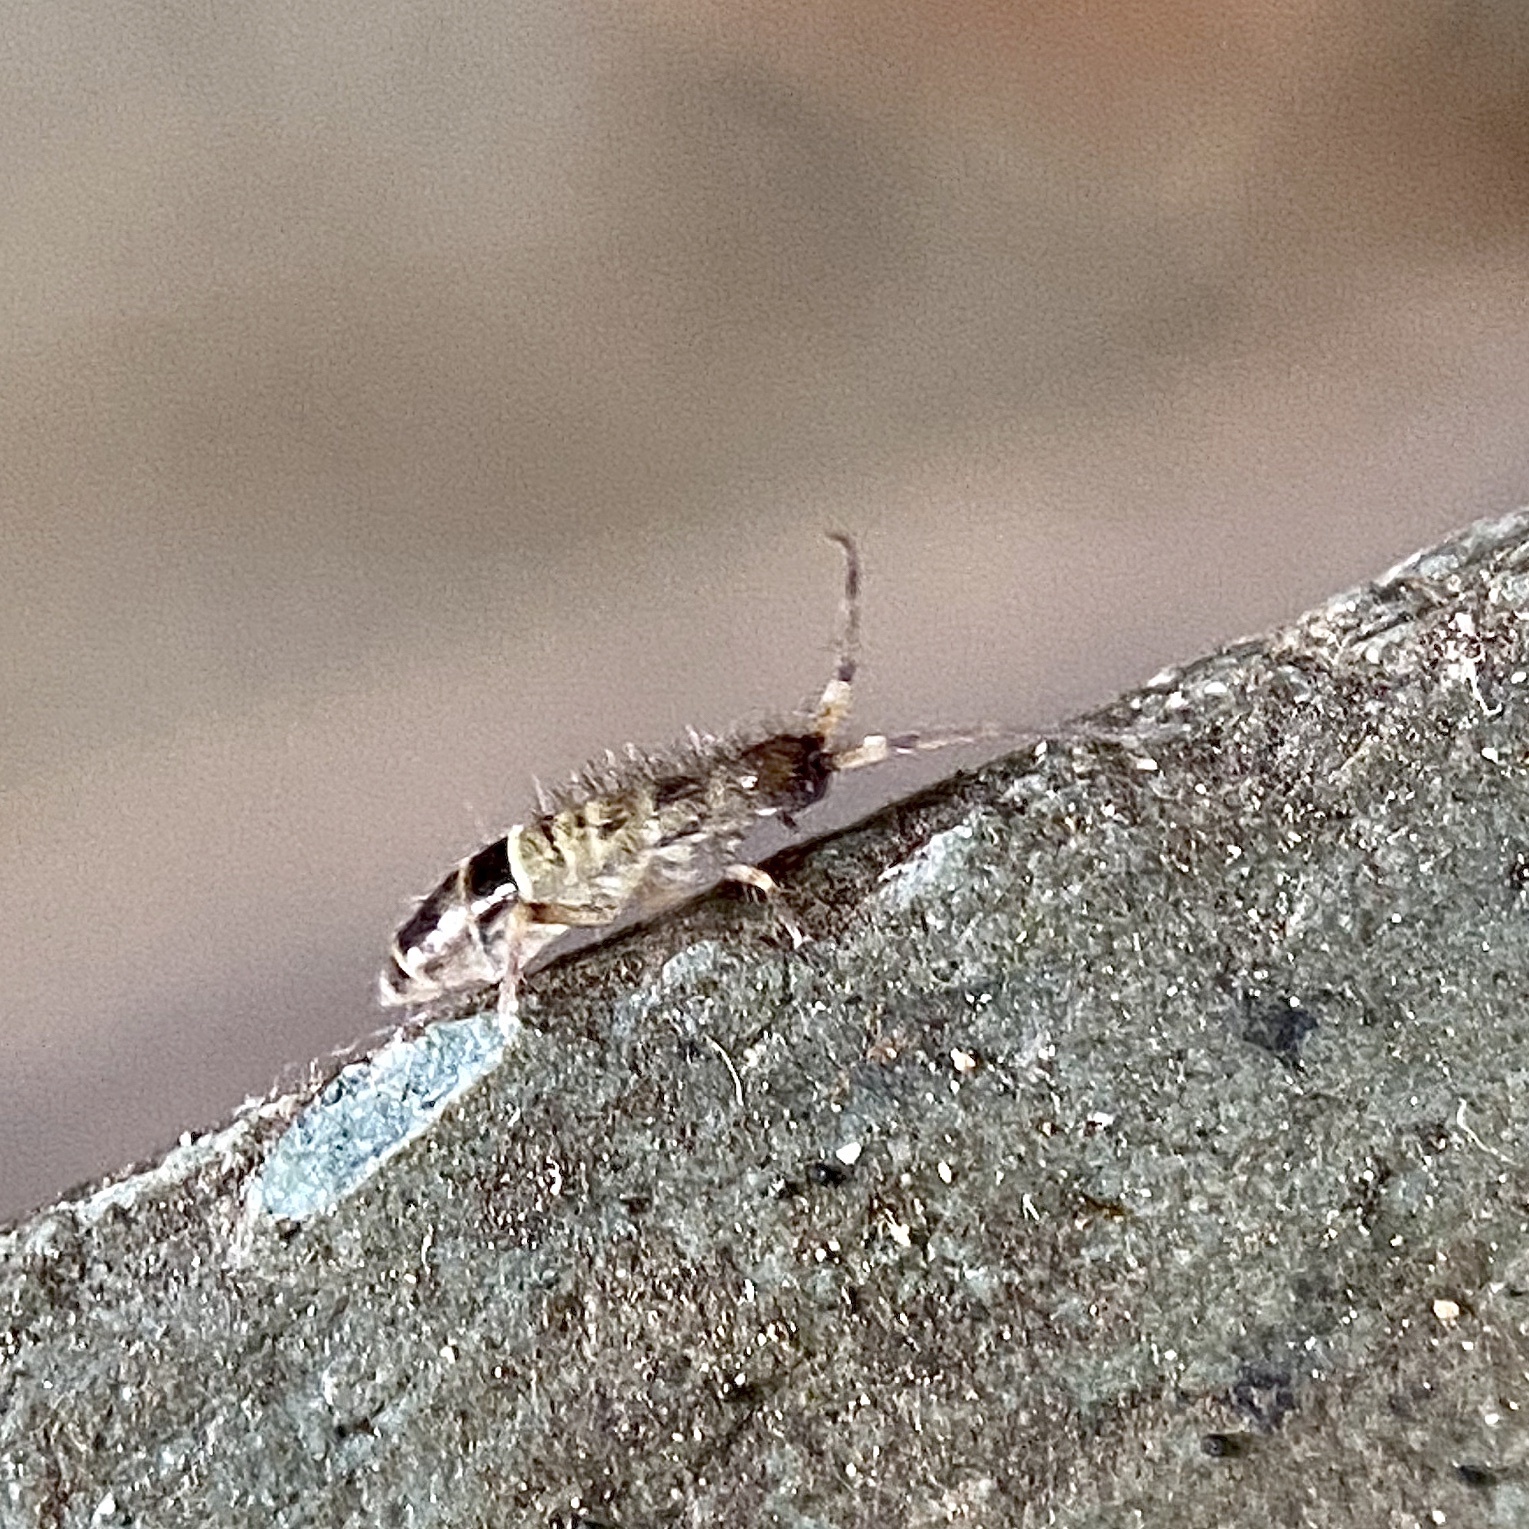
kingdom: Animalia
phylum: Arthropoda
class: Collembola
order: Entomobryomorpha
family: Orchesellidae
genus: Orchesella
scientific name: Orchesella cincta
